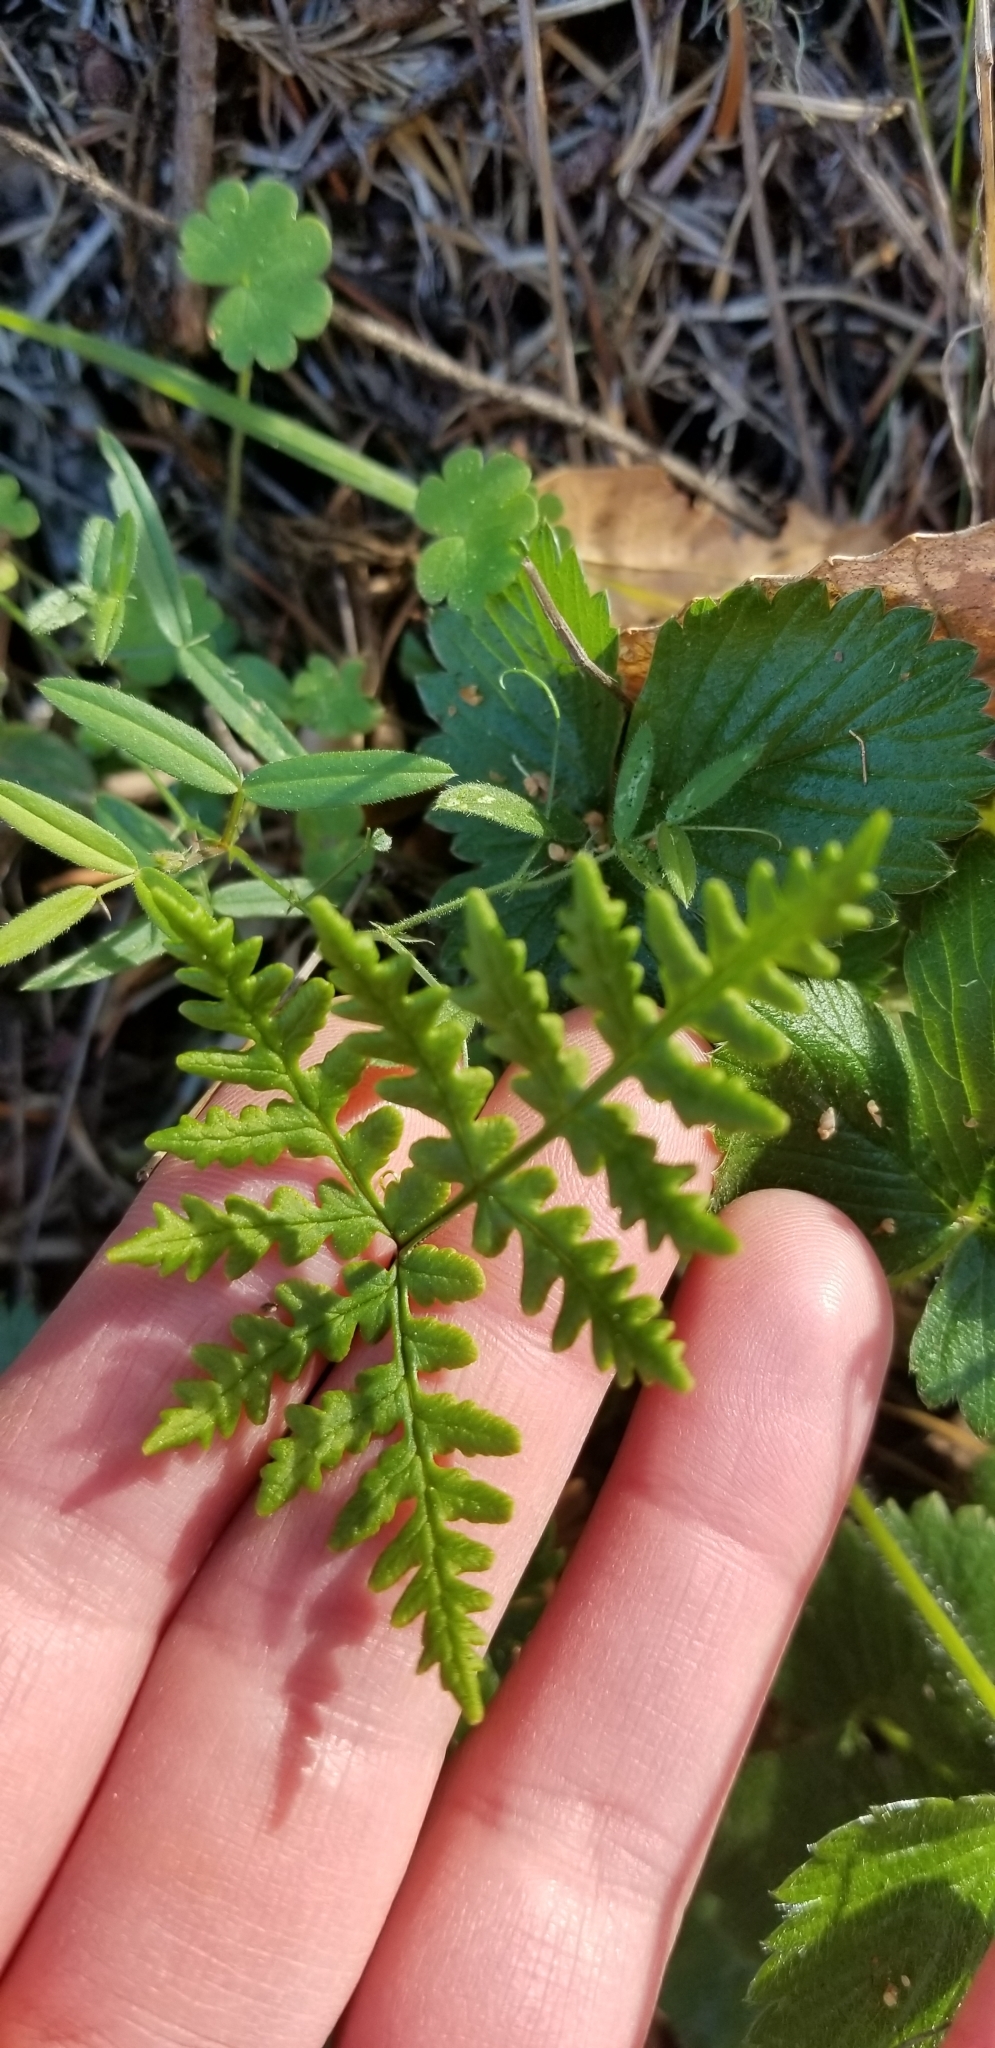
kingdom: Plantae
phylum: Tracheophyta
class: Polypodiopsida
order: Polypodiales
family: Pteridaceae
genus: Pentagramma
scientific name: Pentagramma triangularis
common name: Gold fern
